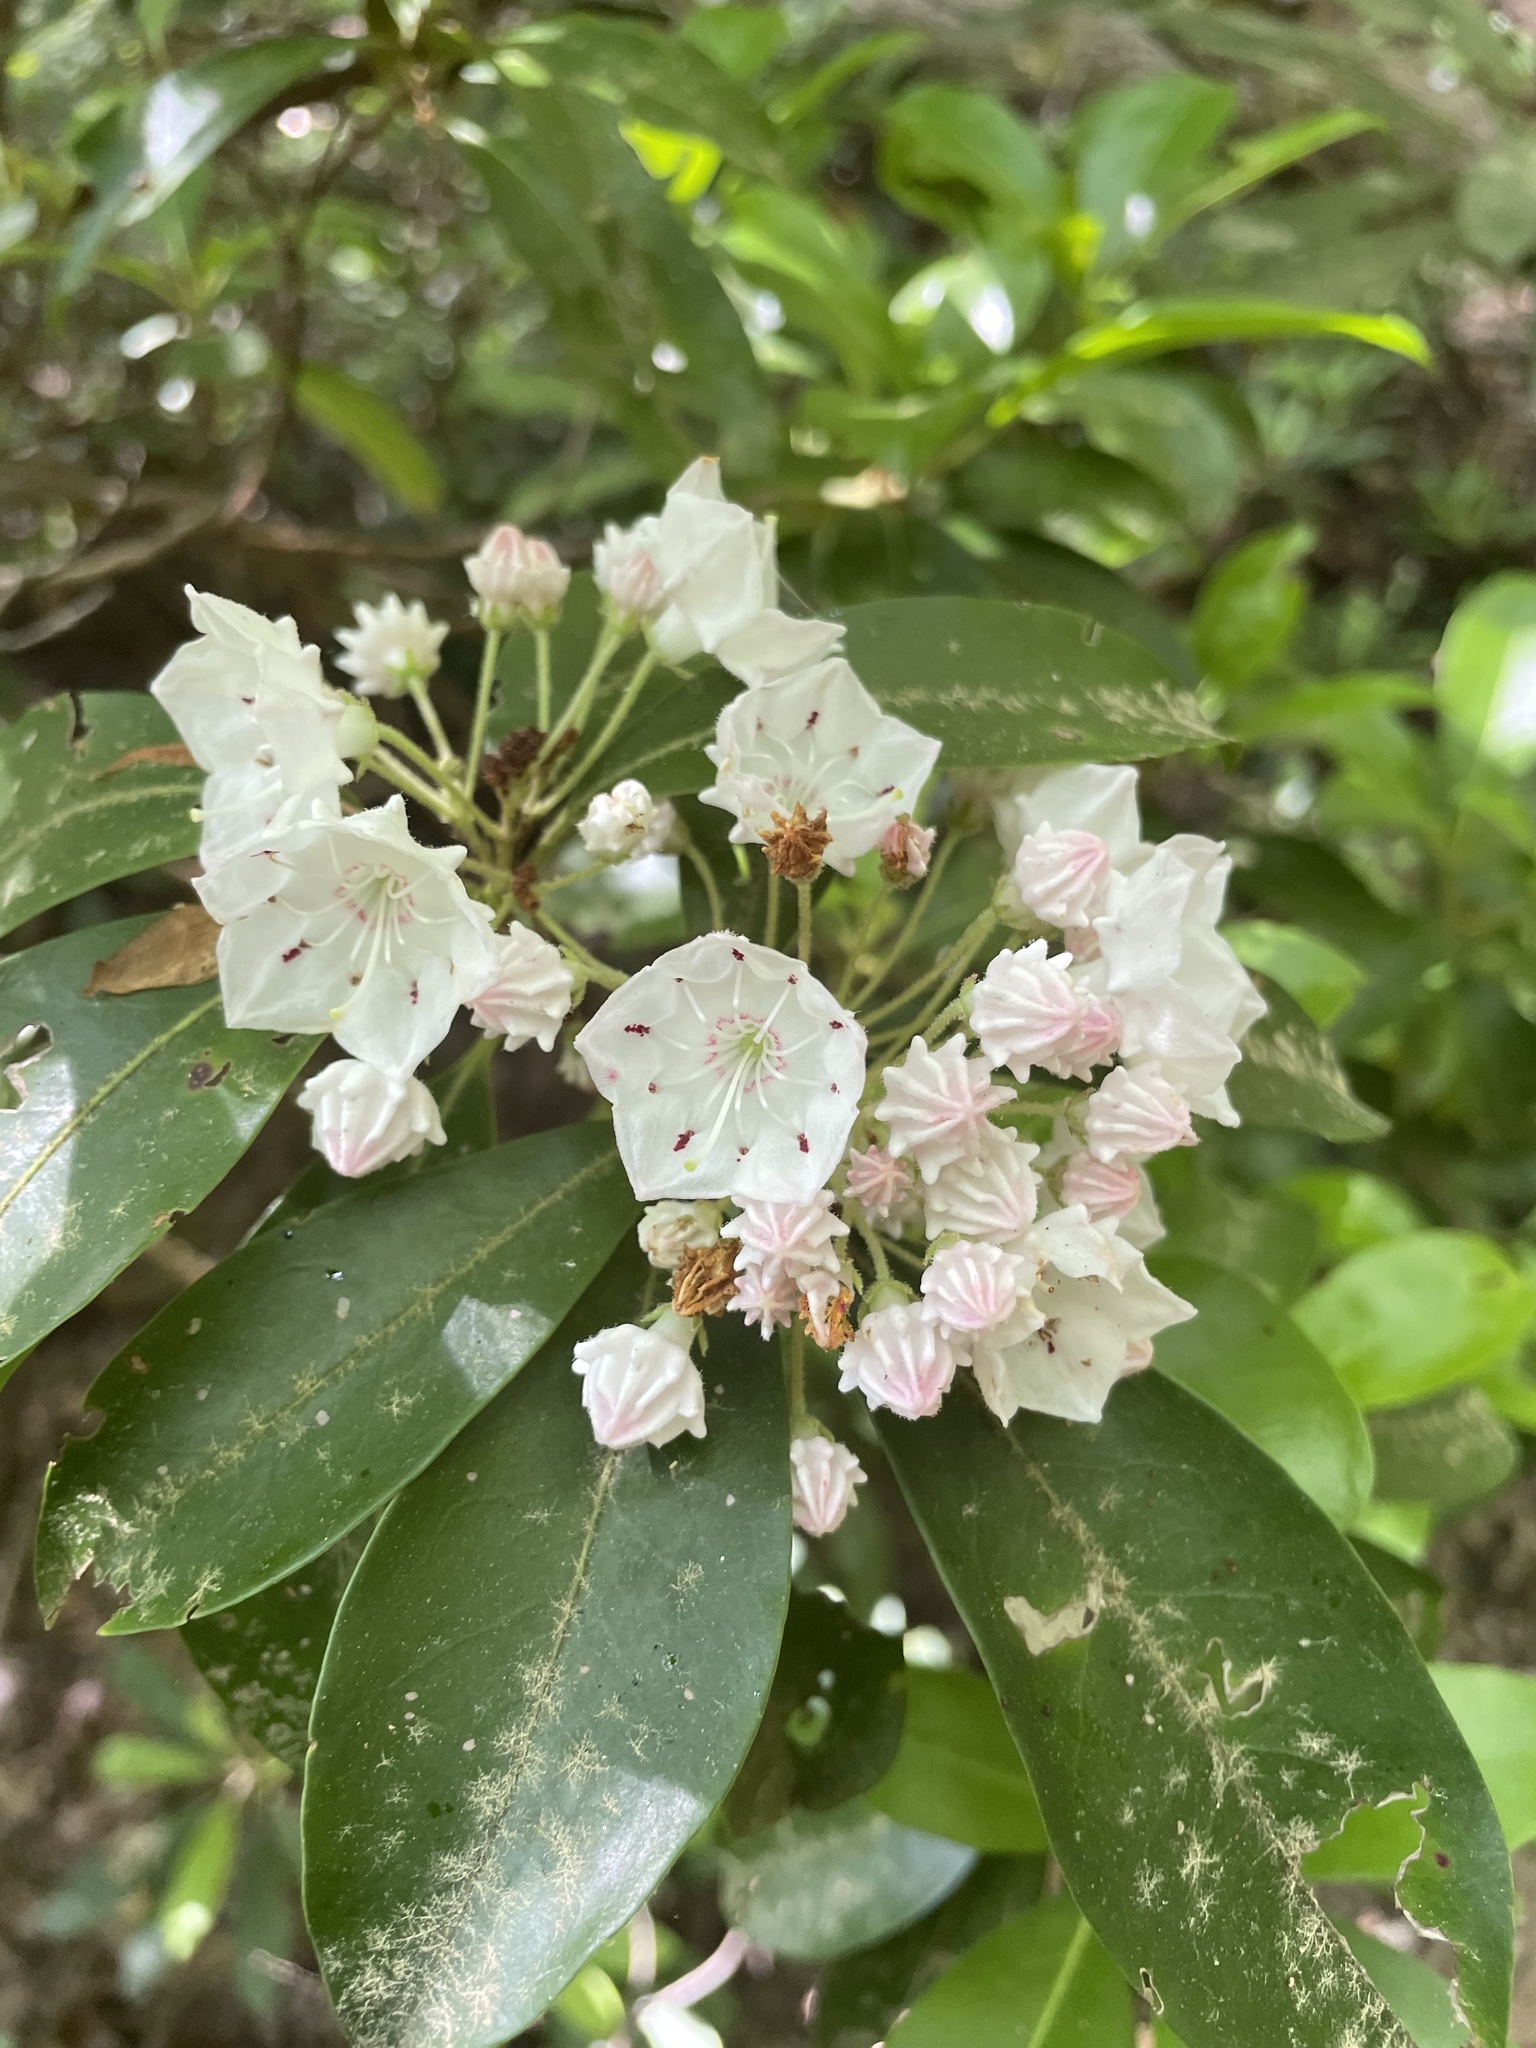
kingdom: Plantae
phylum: Tracheophyta
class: Magnoliopsida
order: Ericales
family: Ericaceae
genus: Kalmia
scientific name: Kalmia latifolia
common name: Mountain-laurel
